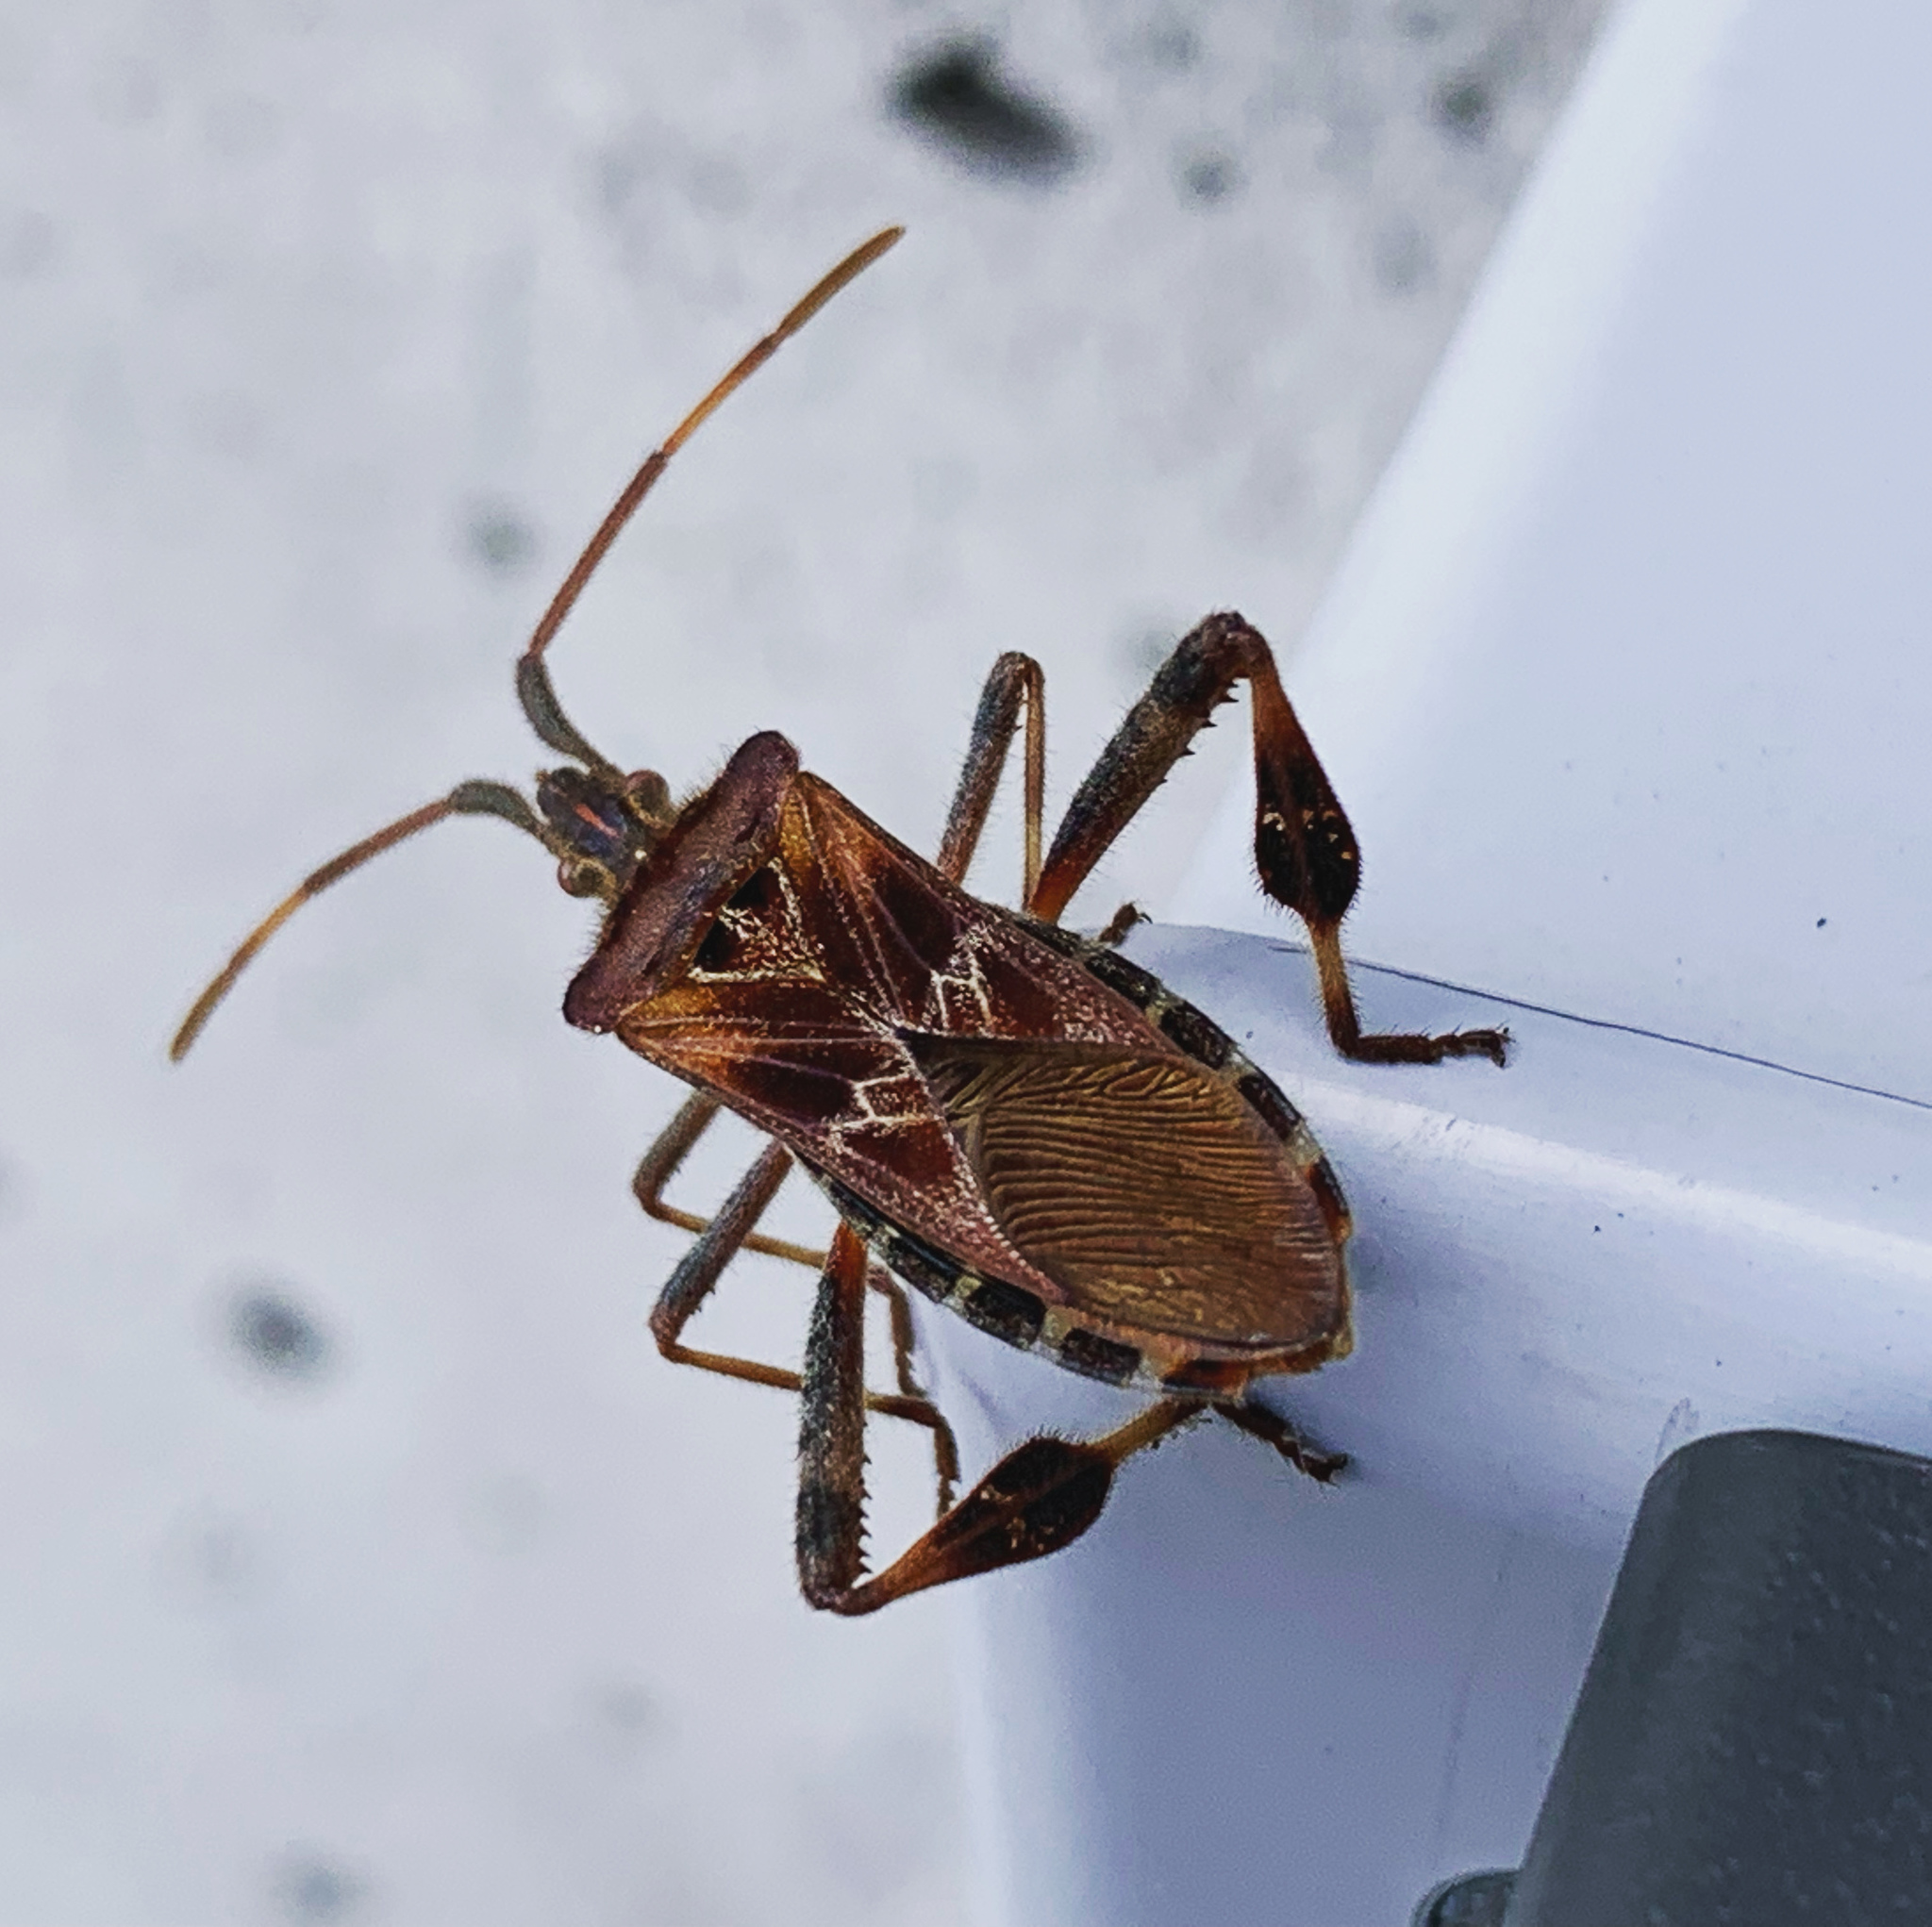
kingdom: Animalia
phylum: Arthropoda
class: Insecta
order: Hemiptera
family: Coreidae
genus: Leptoglossus
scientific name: Leptoglossus occidentalis
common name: Western conifer-seed bug
